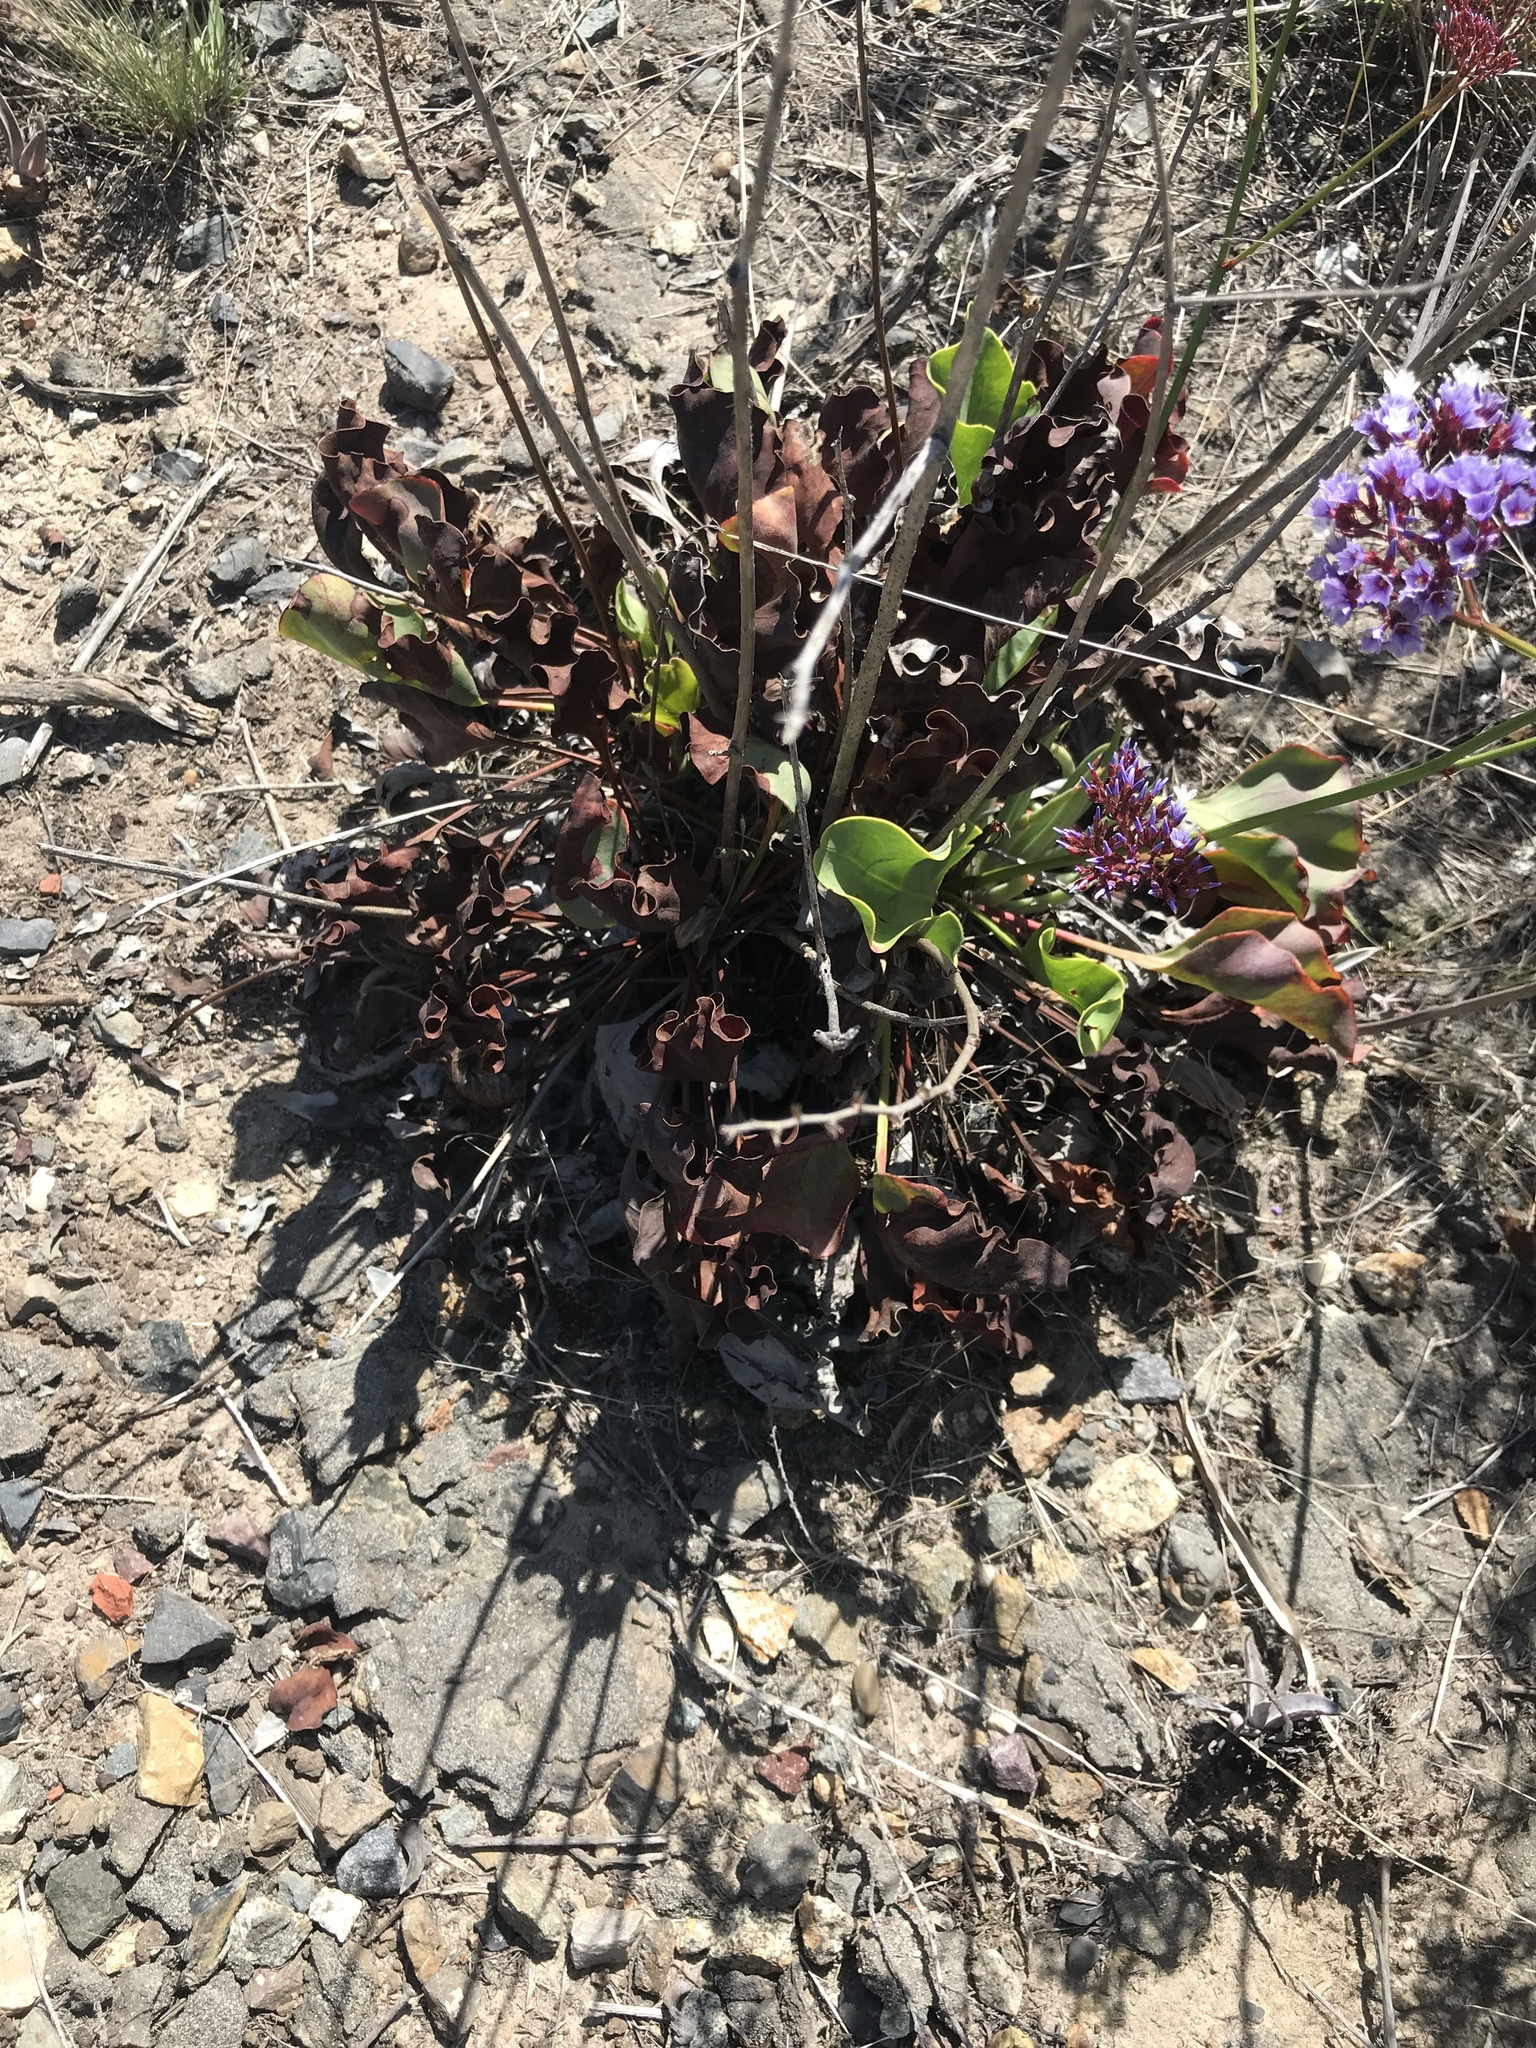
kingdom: Plantae
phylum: Tracheophyta
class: Magnoliopsida
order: Caryophyllales
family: Plumbaginaceae
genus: Limonium
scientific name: Limonium perezii
